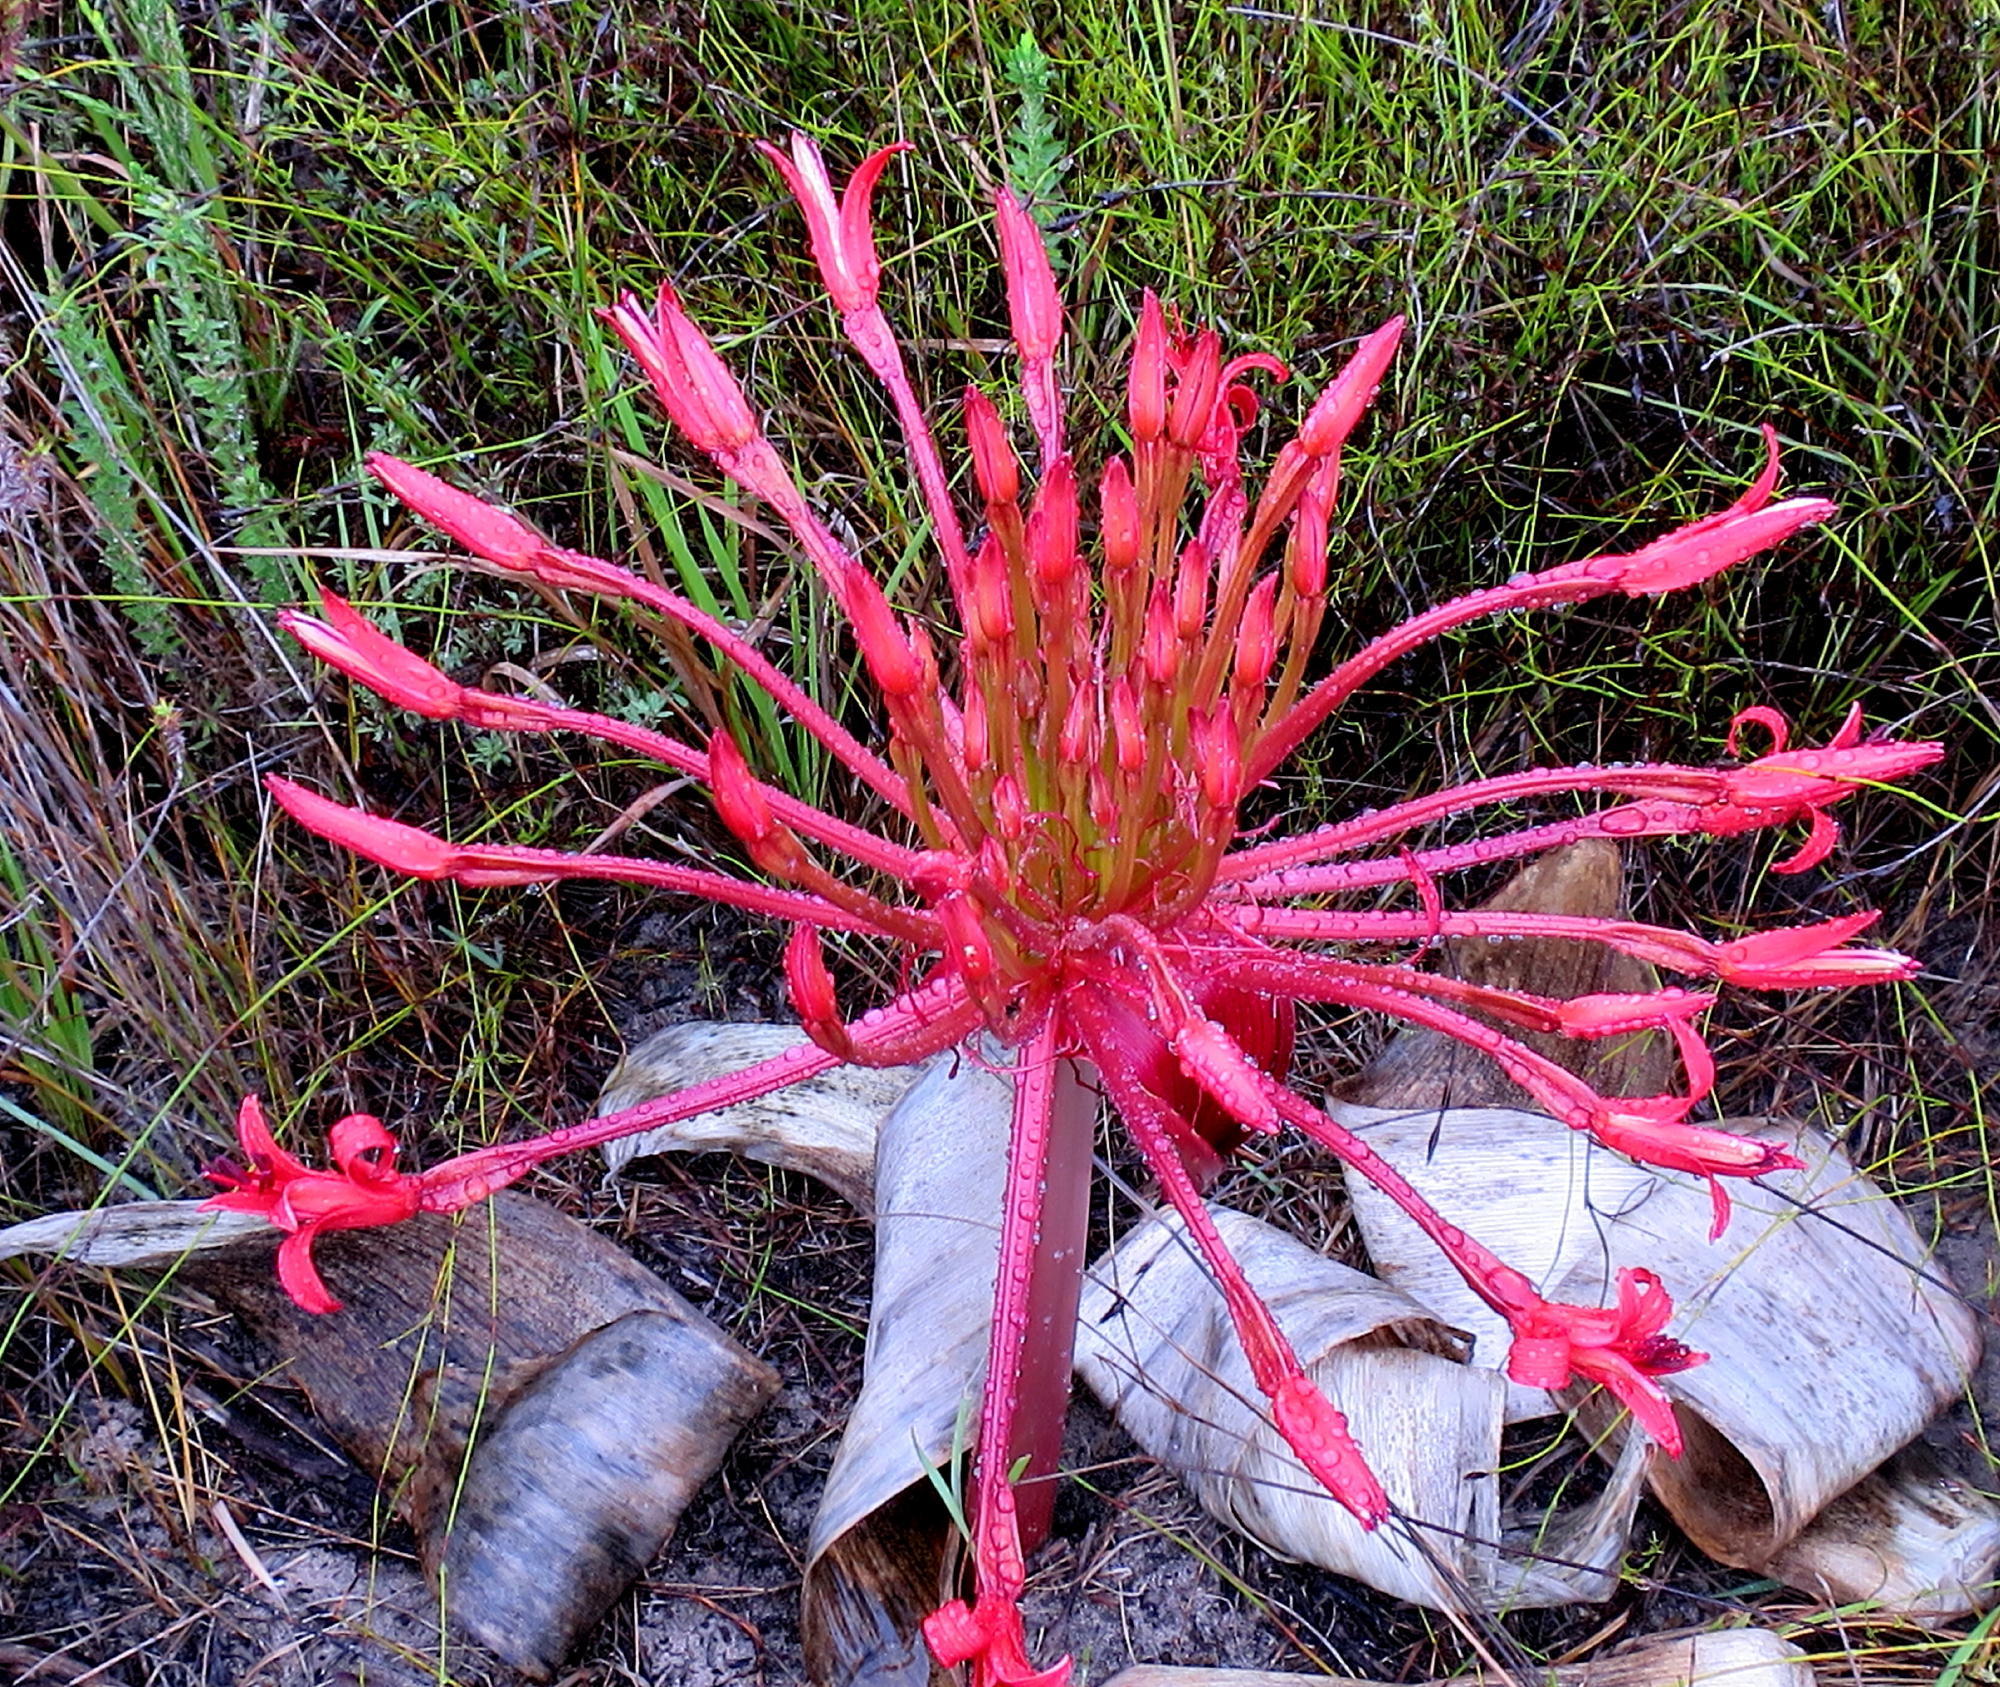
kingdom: Plantae
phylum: Tracheophyta
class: Liliopsida
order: Asparagales
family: Amaryllidaceae
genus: Brunsvigia
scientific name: Brunsvigia orientalis
